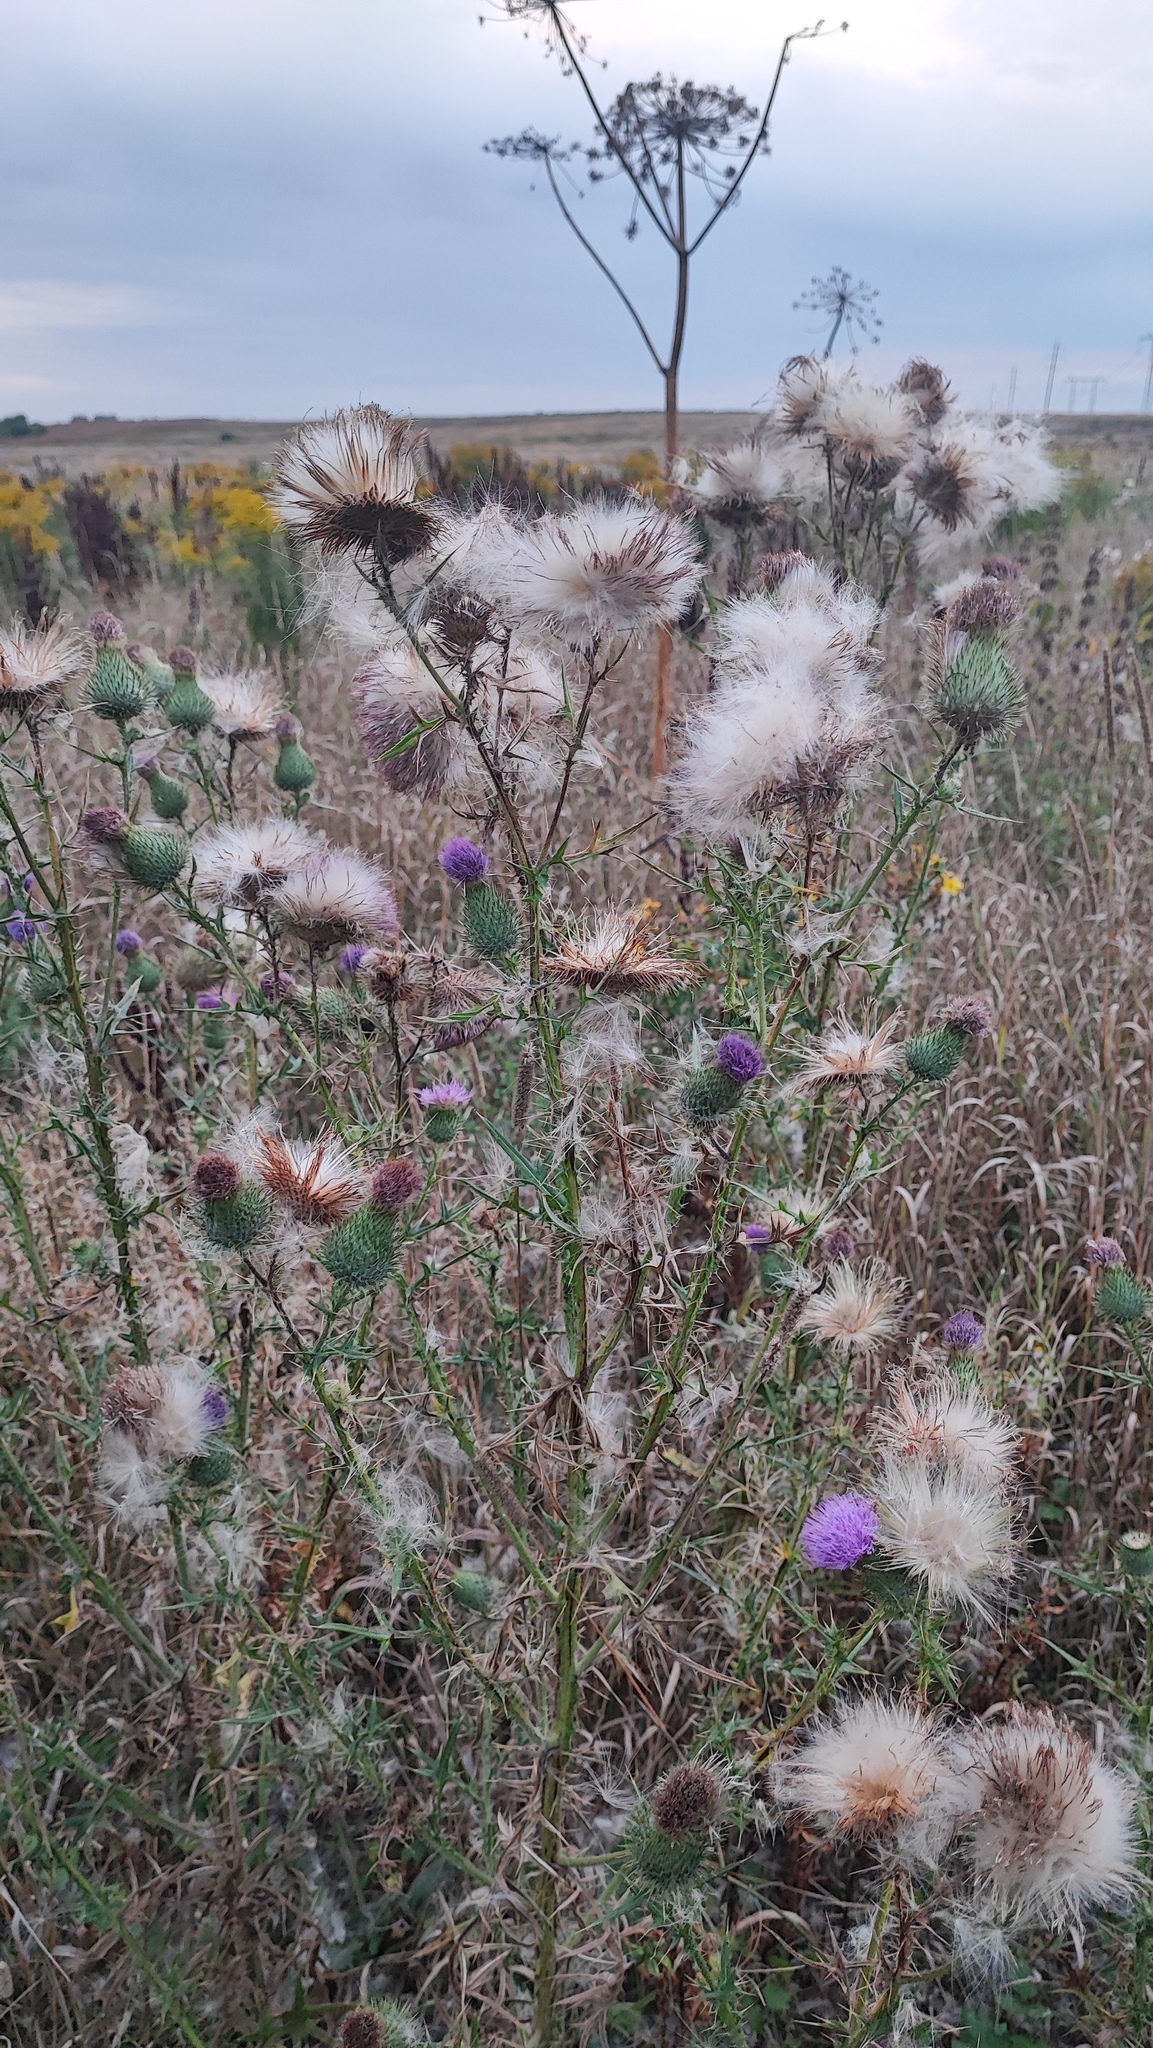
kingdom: Plantae
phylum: Tracheophyta
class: Magnoliopsida
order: Asterales
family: Asteraceae
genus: Cirsium
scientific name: Cirsium vulgare
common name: Bull thistle
